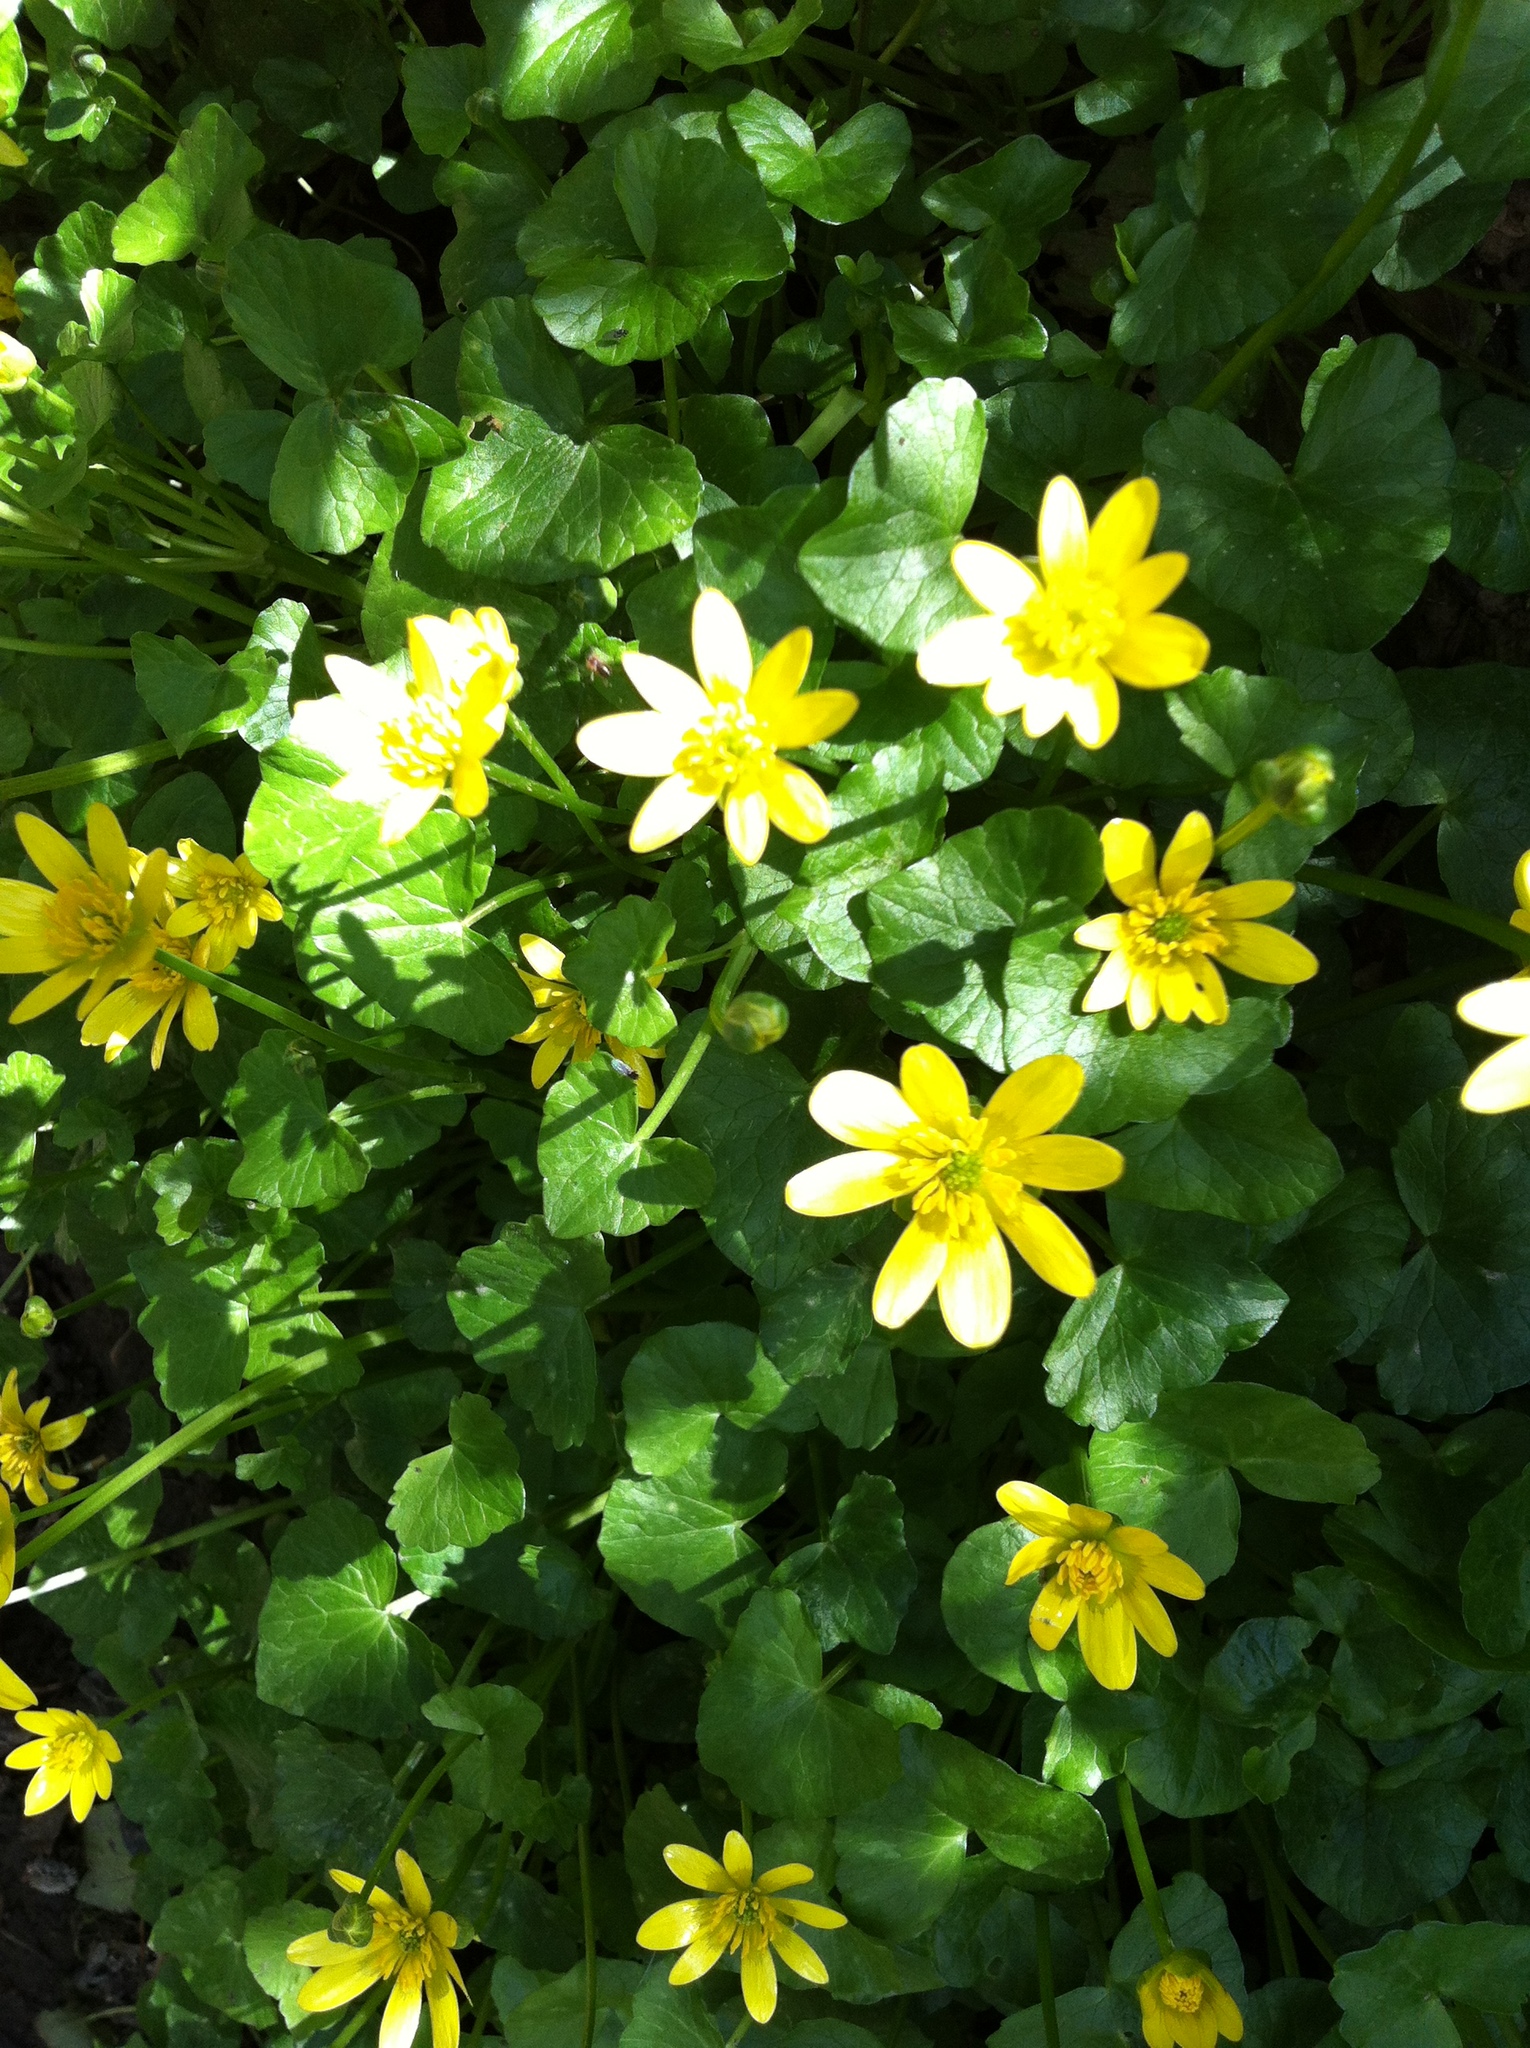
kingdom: Plantae
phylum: Tracheophyta
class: Magnoliopsida
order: Ranunculales
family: Ranunculaceae
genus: Ficaria
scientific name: Ficaria verna
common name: Lesser celandine
